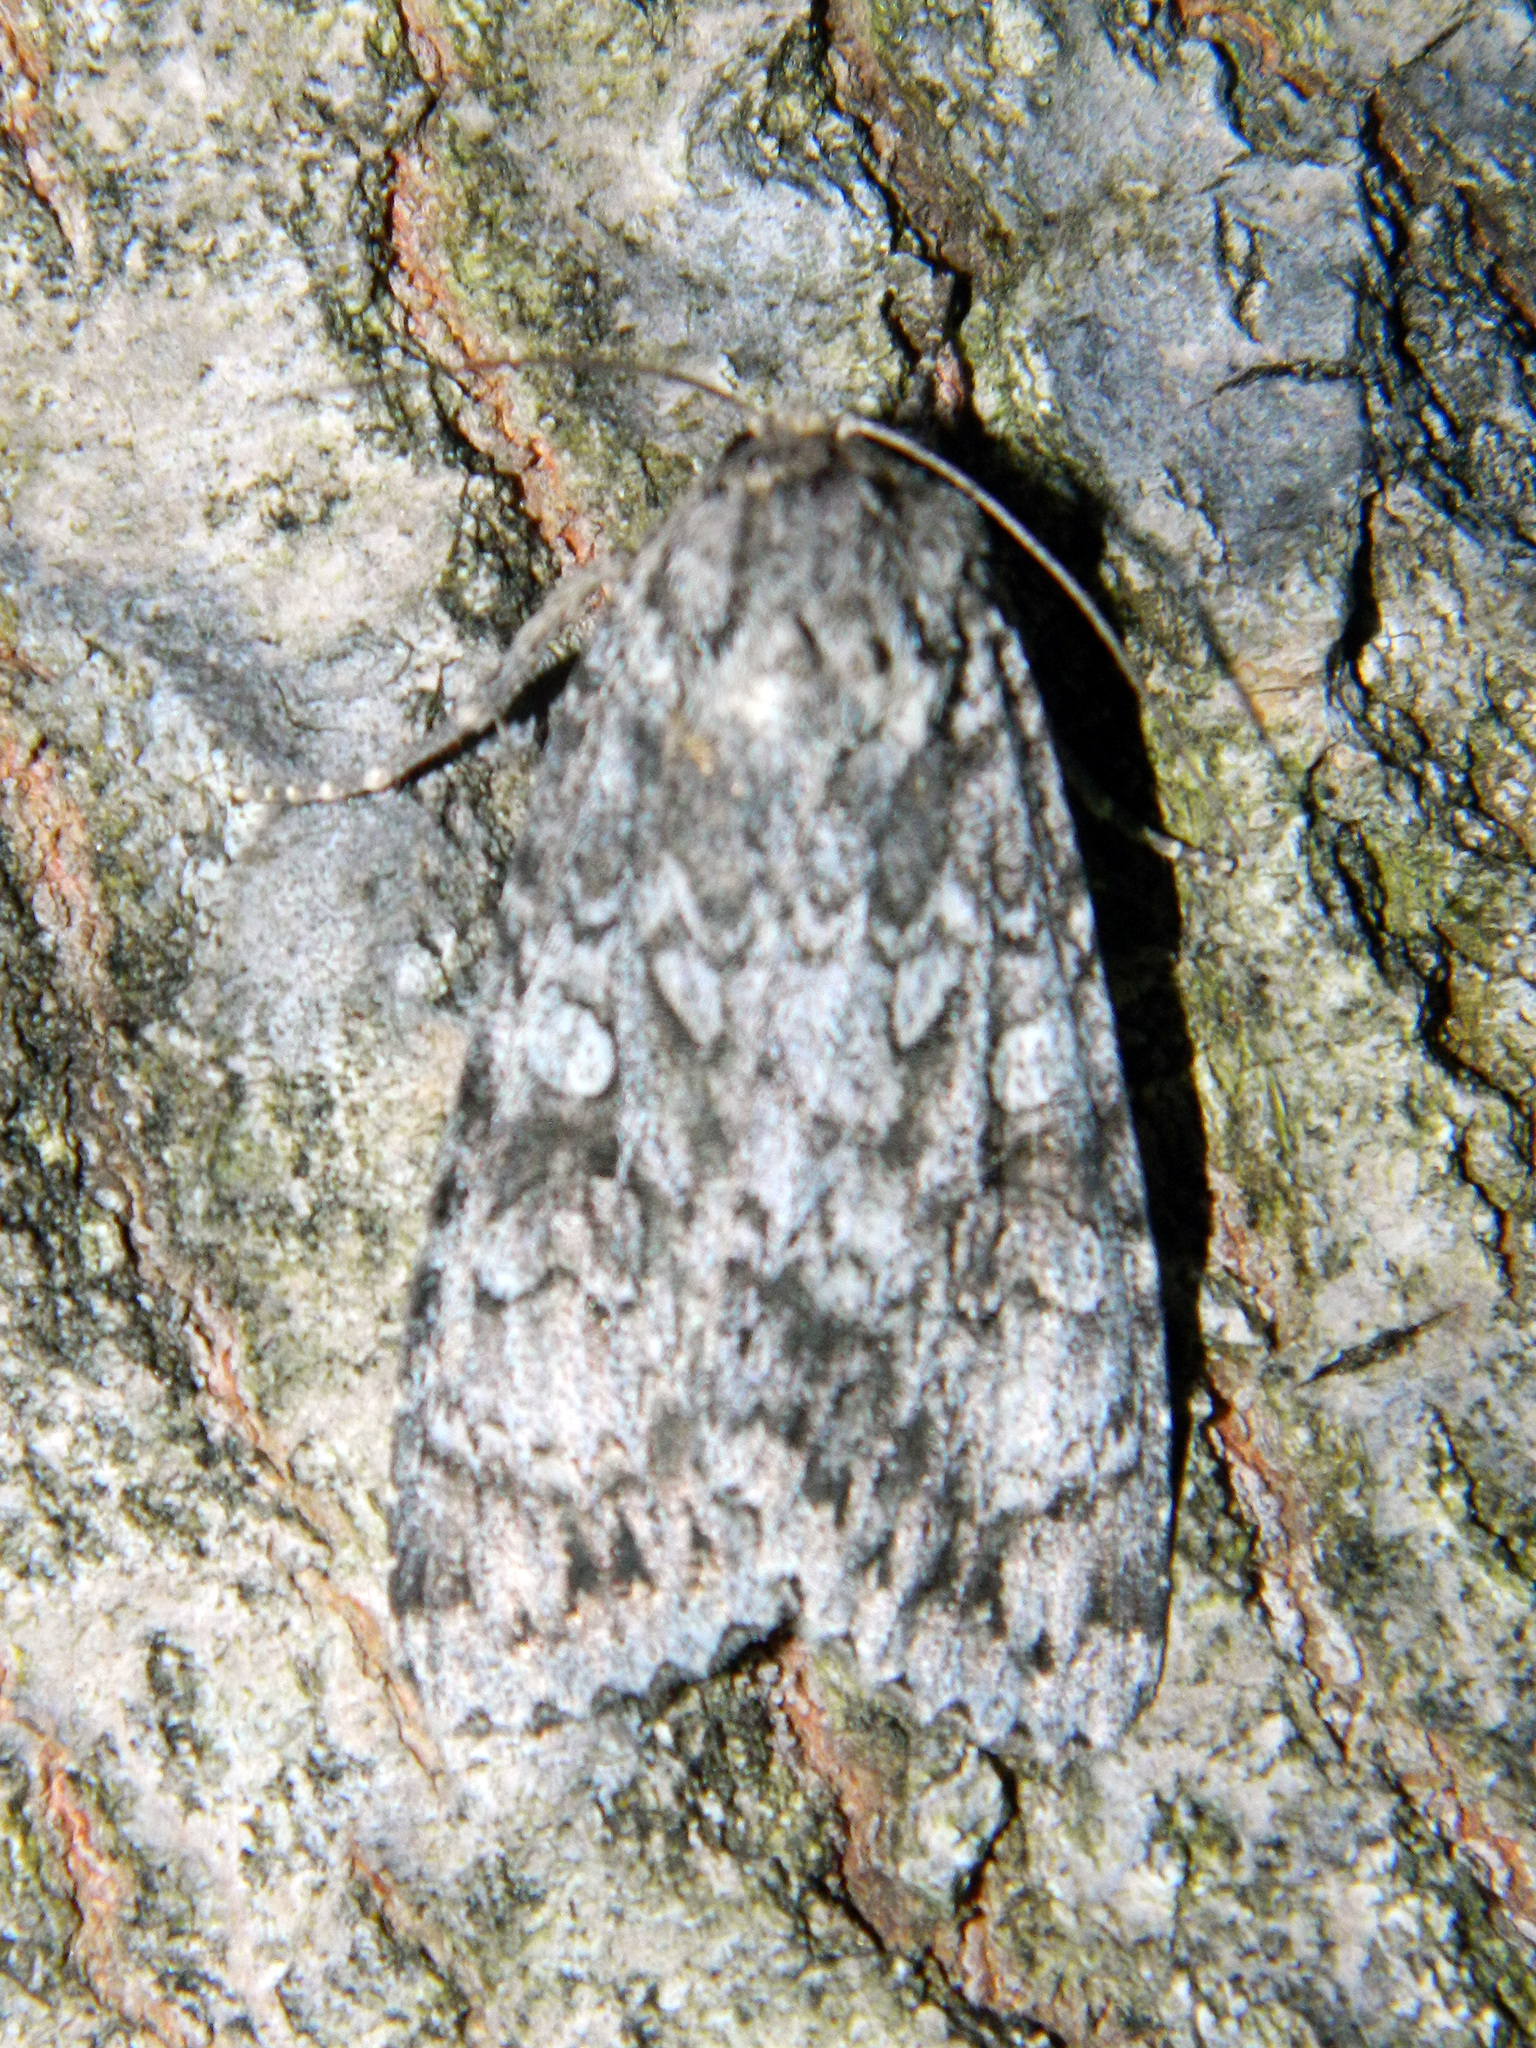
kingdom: Animalia
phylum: Arthropoda
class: Insecta
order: Lepidoptera
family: Noctuidae
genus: Eurois
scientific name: Eurois occulta
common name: Great brocade
